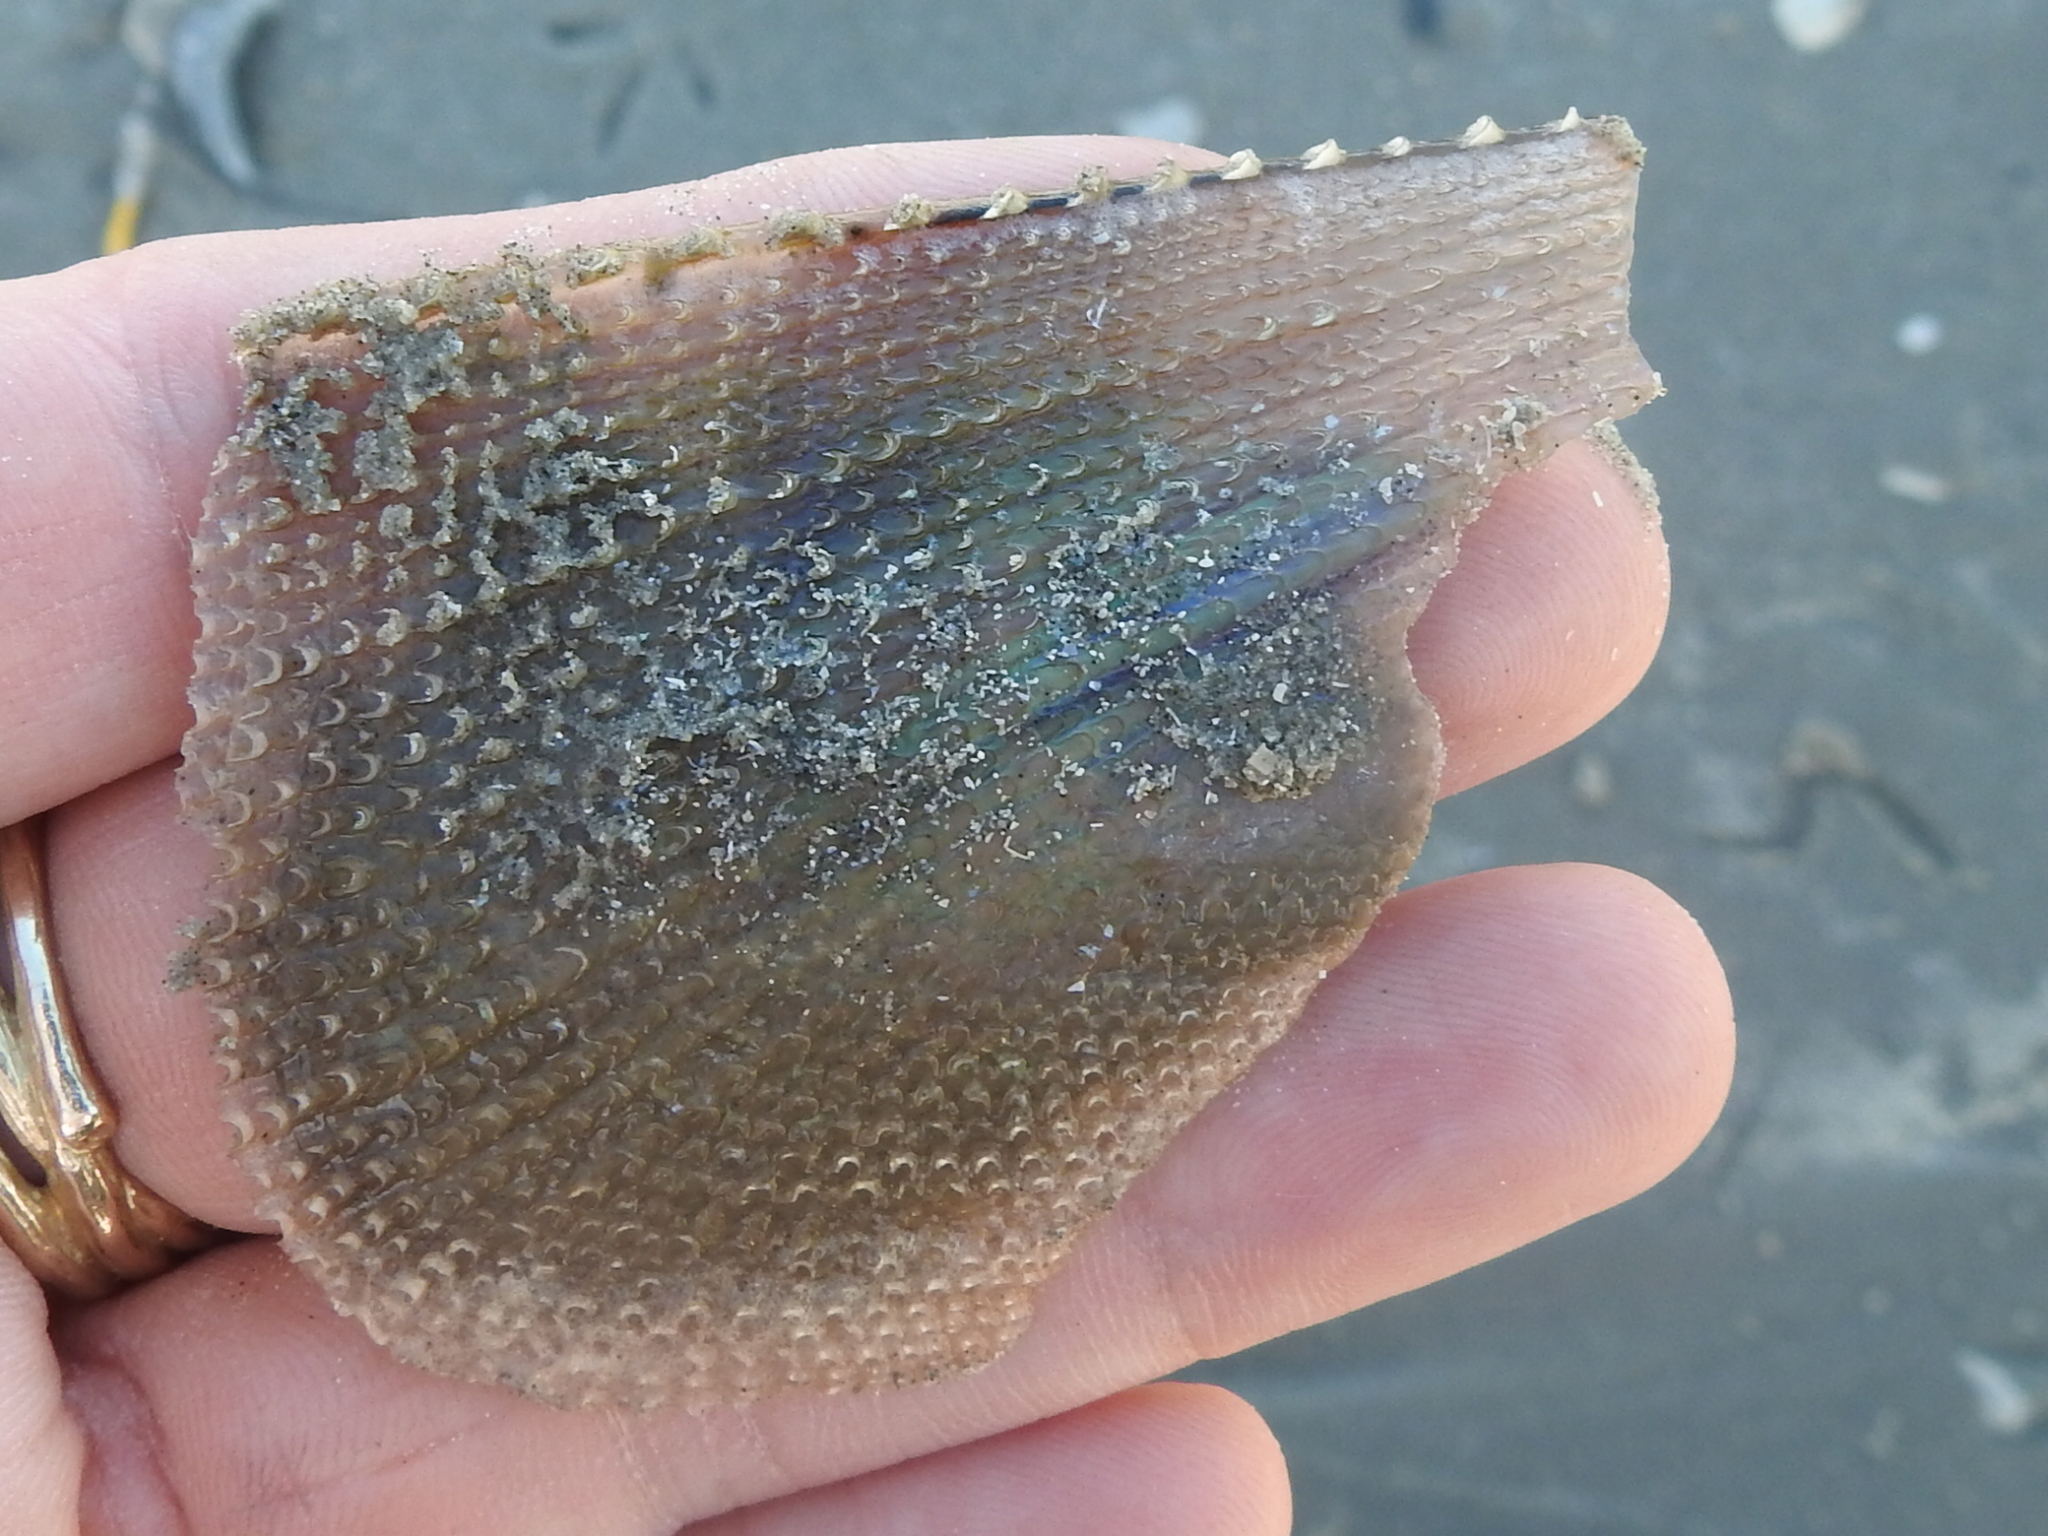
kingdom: Animalia
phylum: Mollusca
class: Bivalvia
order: Ostreida
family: Pinnidae
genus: Atrina
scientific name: Atrina serrata
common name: Saw-toothed penshell
